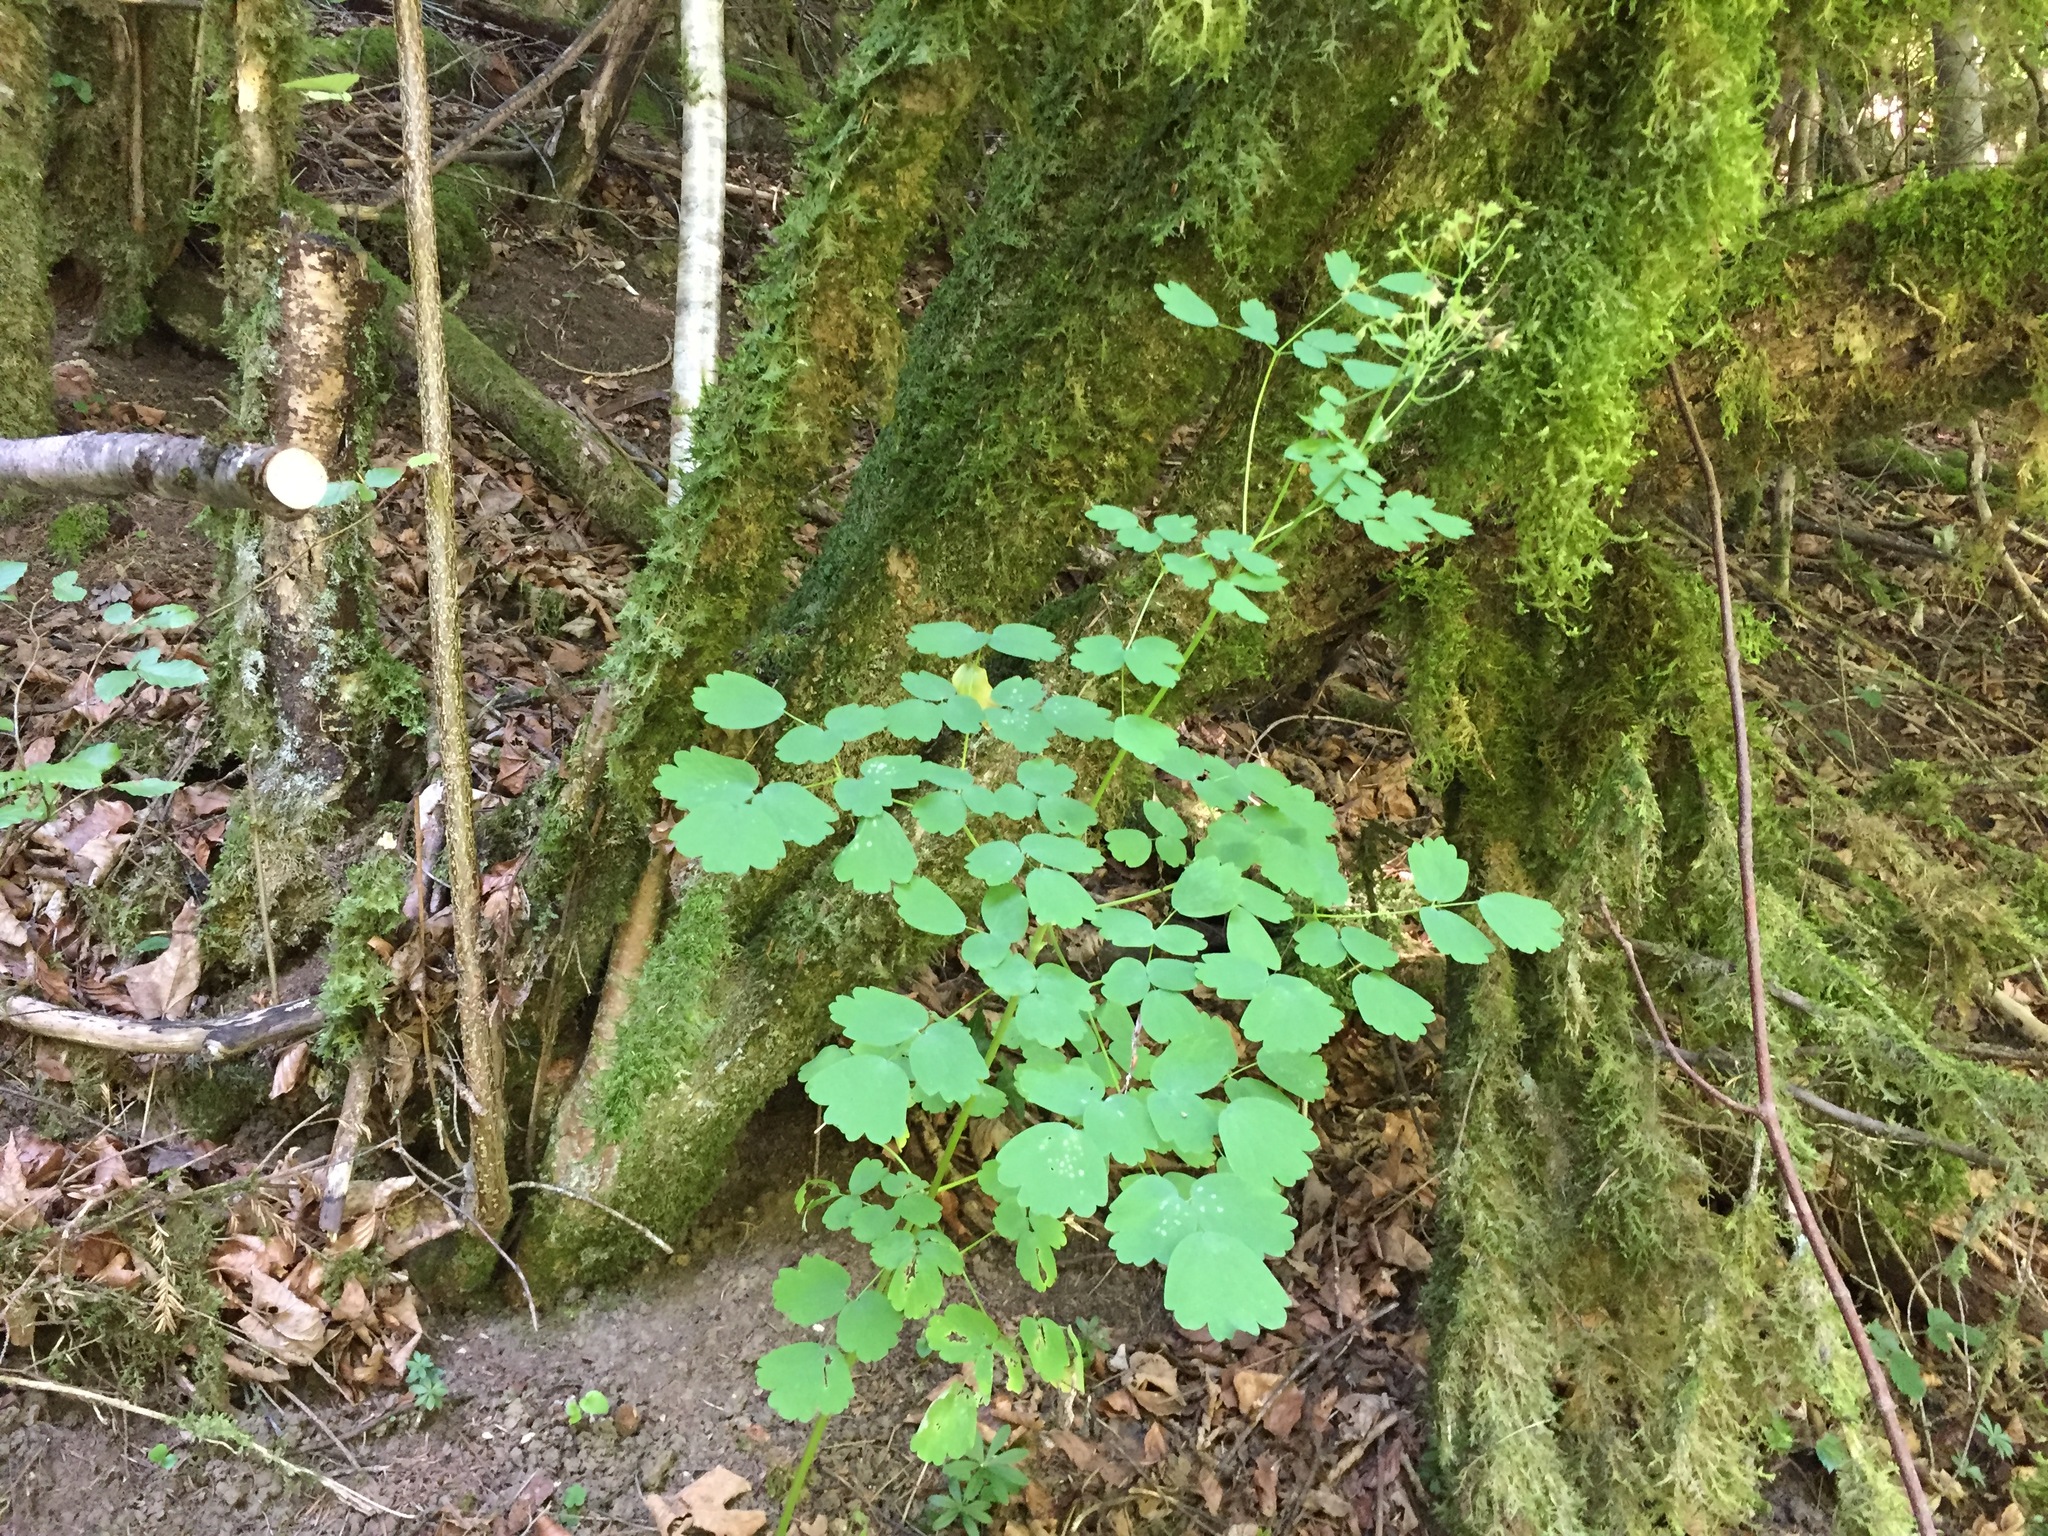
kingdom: Plantae
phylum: Tracheophyta
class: Magnoliopsida
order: Ranunculales
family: Ranunculaceae
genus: Thalictrum
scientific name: Thalictrum aquilegiifolium
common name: French meadow-rue
